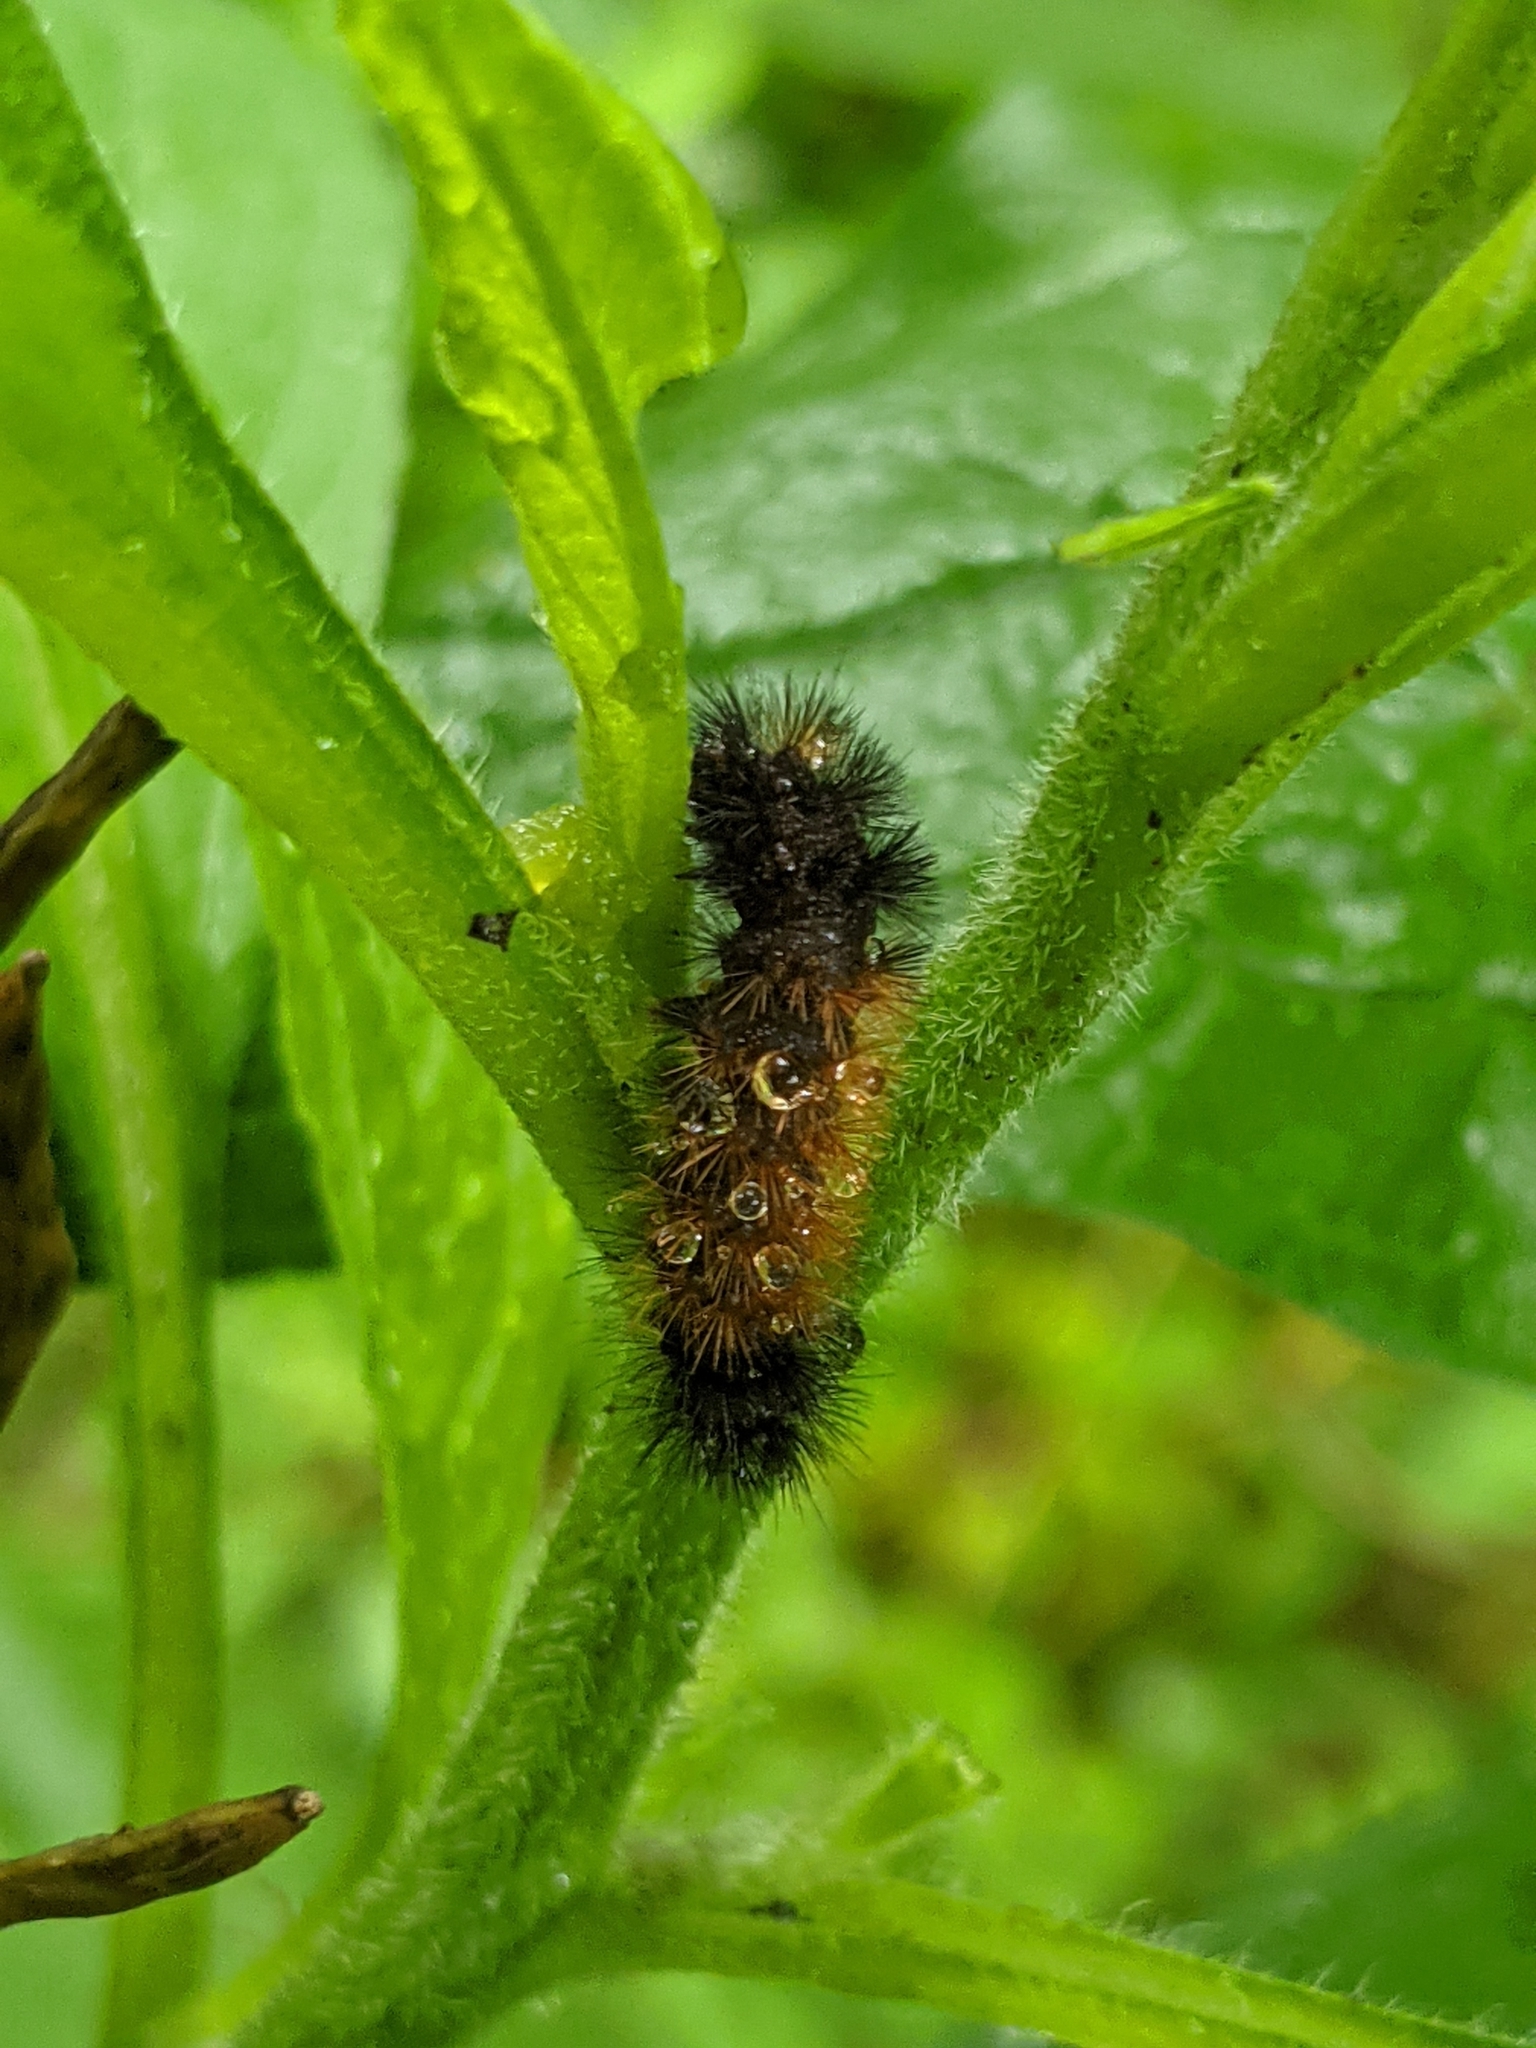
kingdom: Animalia
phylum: Arthropoda
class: Insecta
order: Lepidoptera
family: Erebidae
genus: Pyrrharctia
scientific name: Pyrrharctia isabella
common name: Isabella tiger moth
